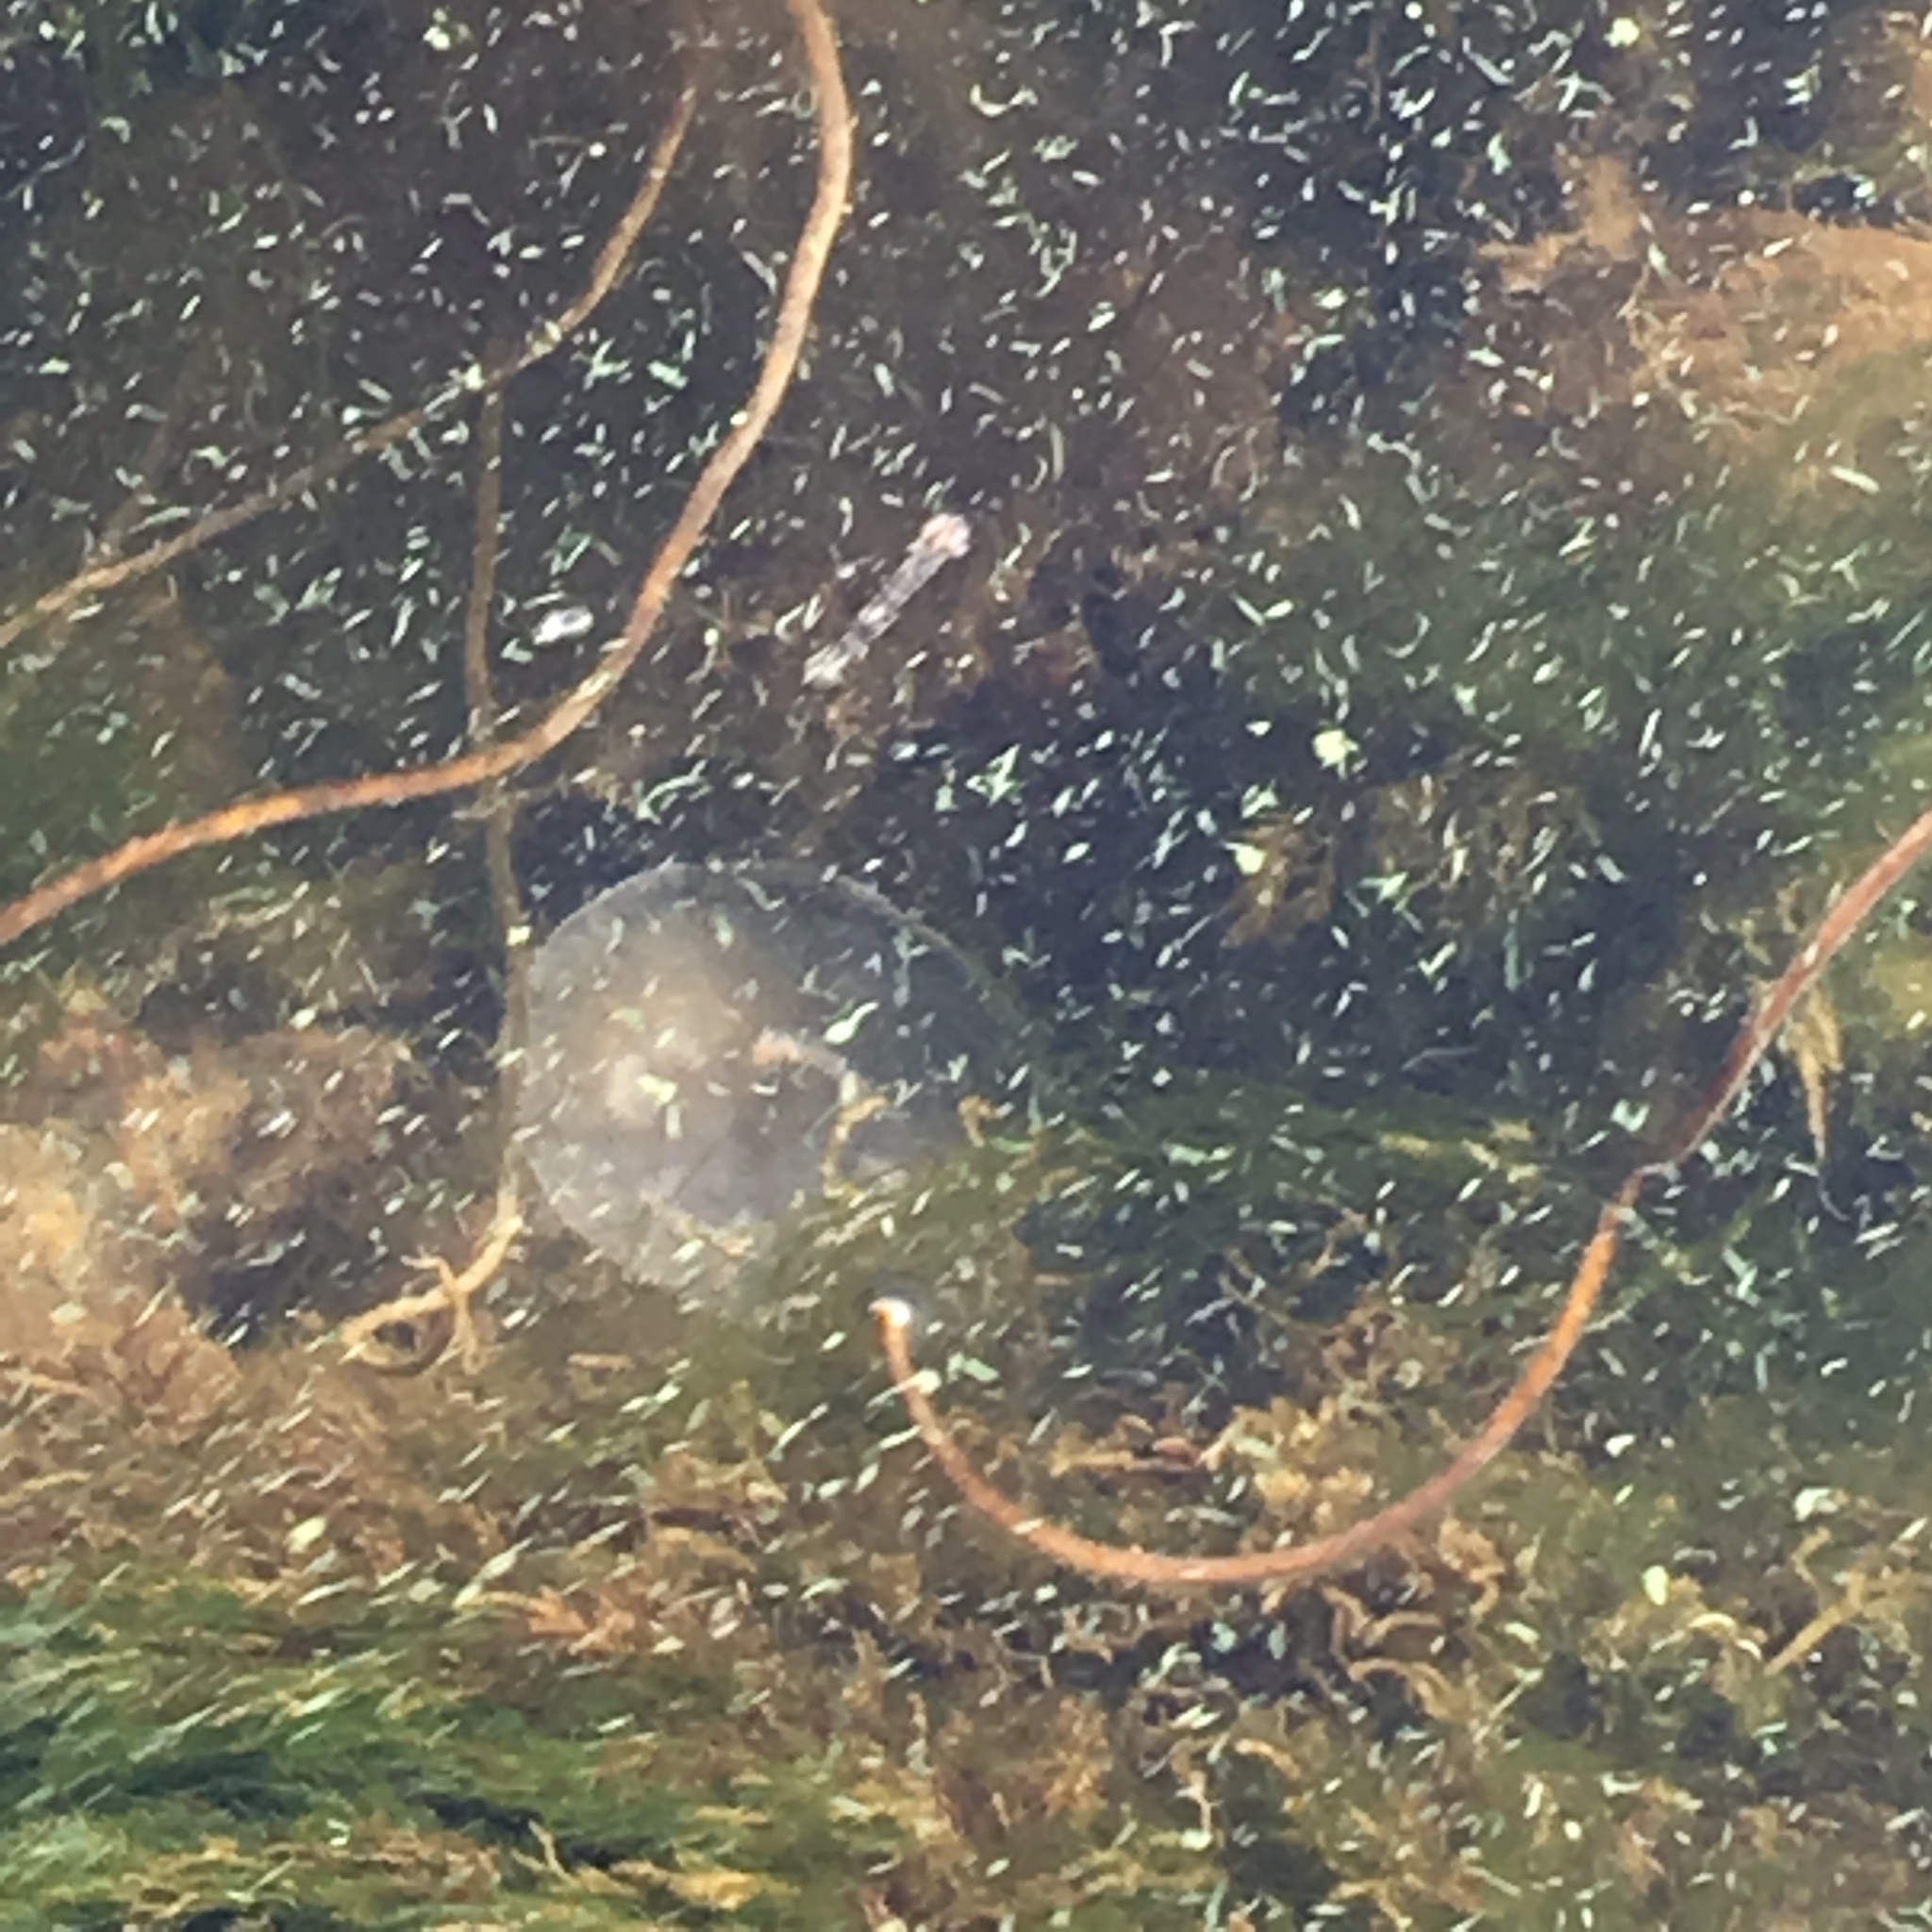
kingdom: Animalia
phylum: Cnidaria
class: Scyphozoa
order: Semaeostomeae
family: Ulmaridae
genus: Aurelia
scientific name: Aurelia aurita
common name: Moon jellyfish
